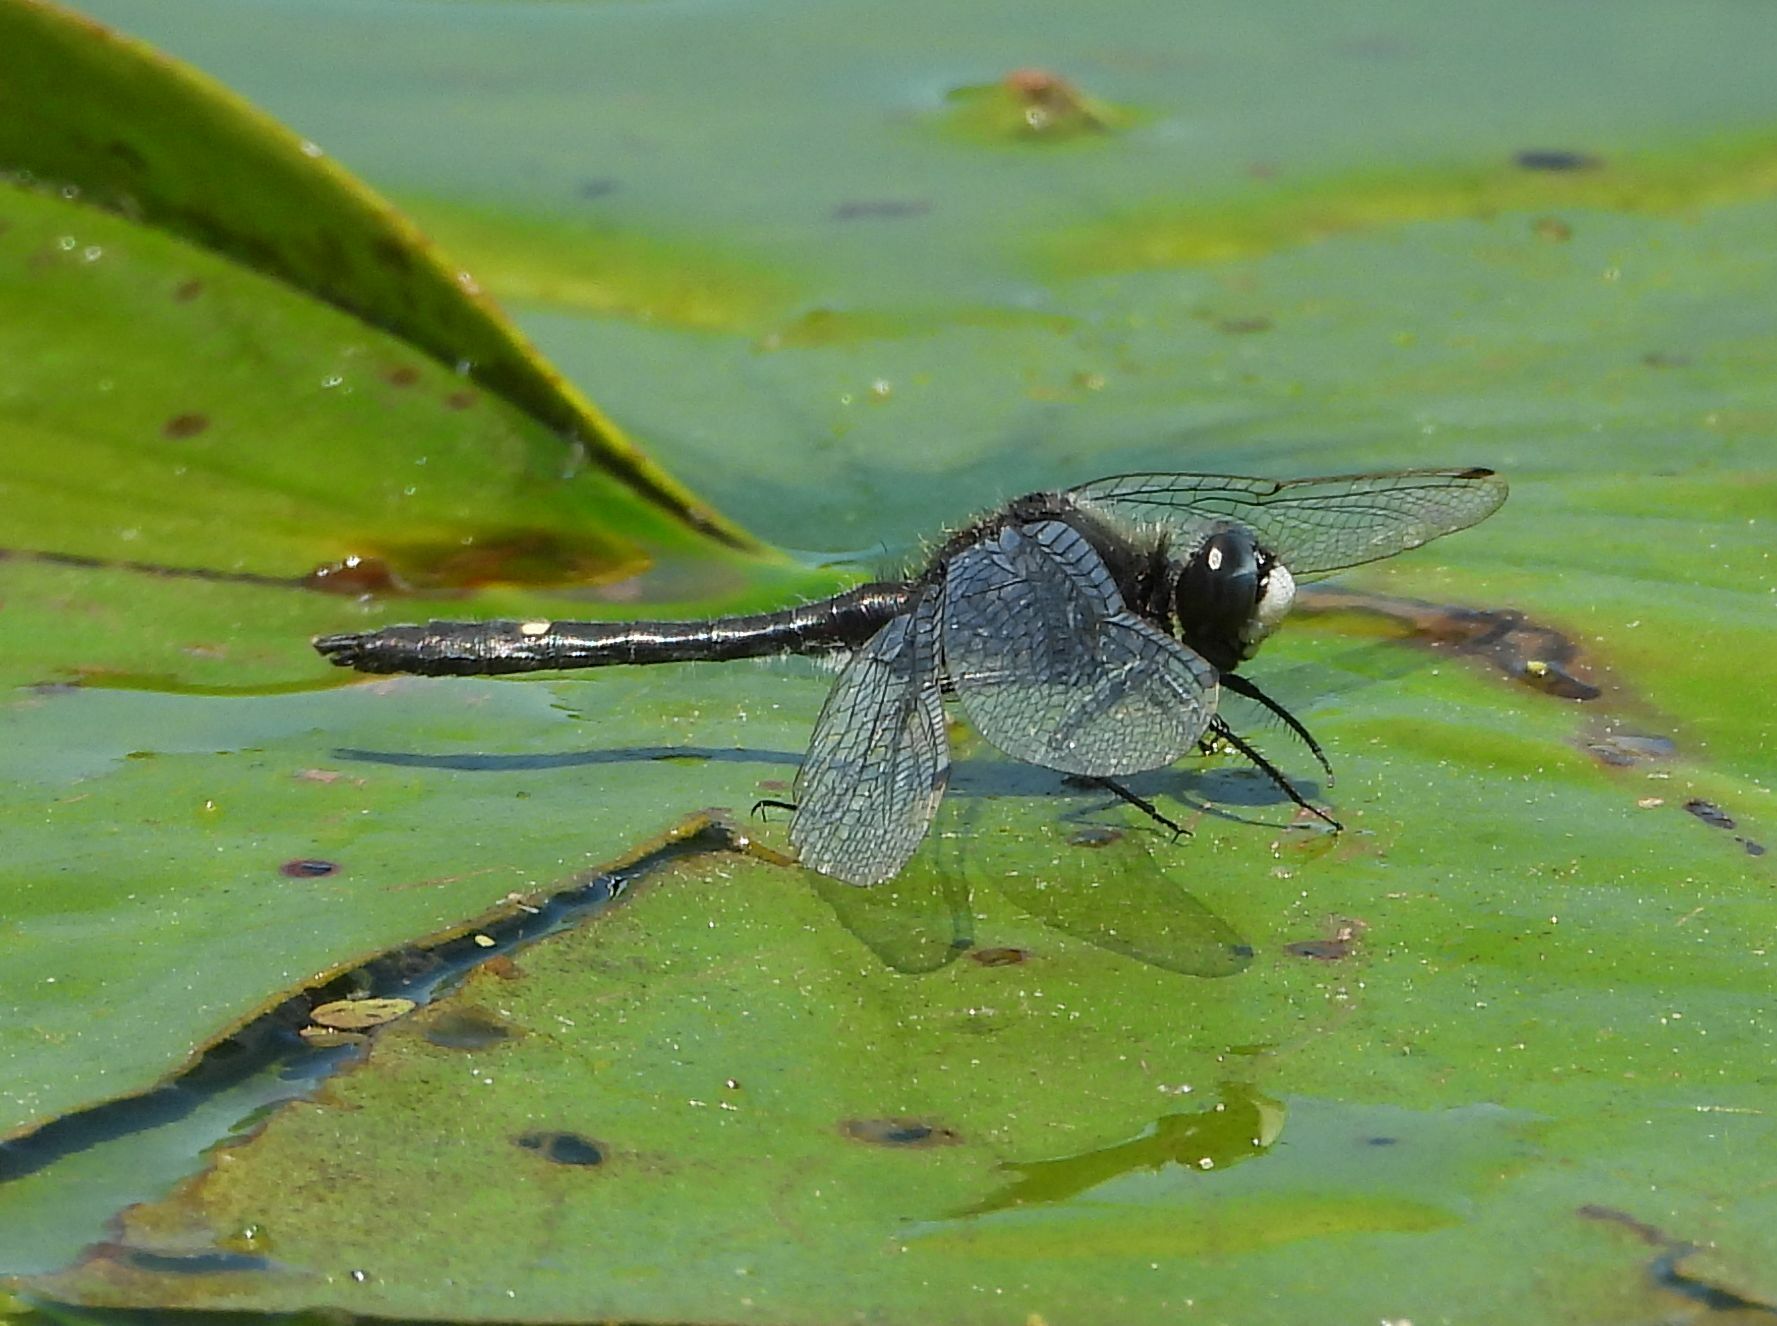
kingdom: Animalia
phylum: Arthropoda
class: Insecta
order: Odonata
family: Libellulidae
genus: Leucorrhinia
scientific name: Leucorrhinia intacta
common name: Dot-tailed whiteface
